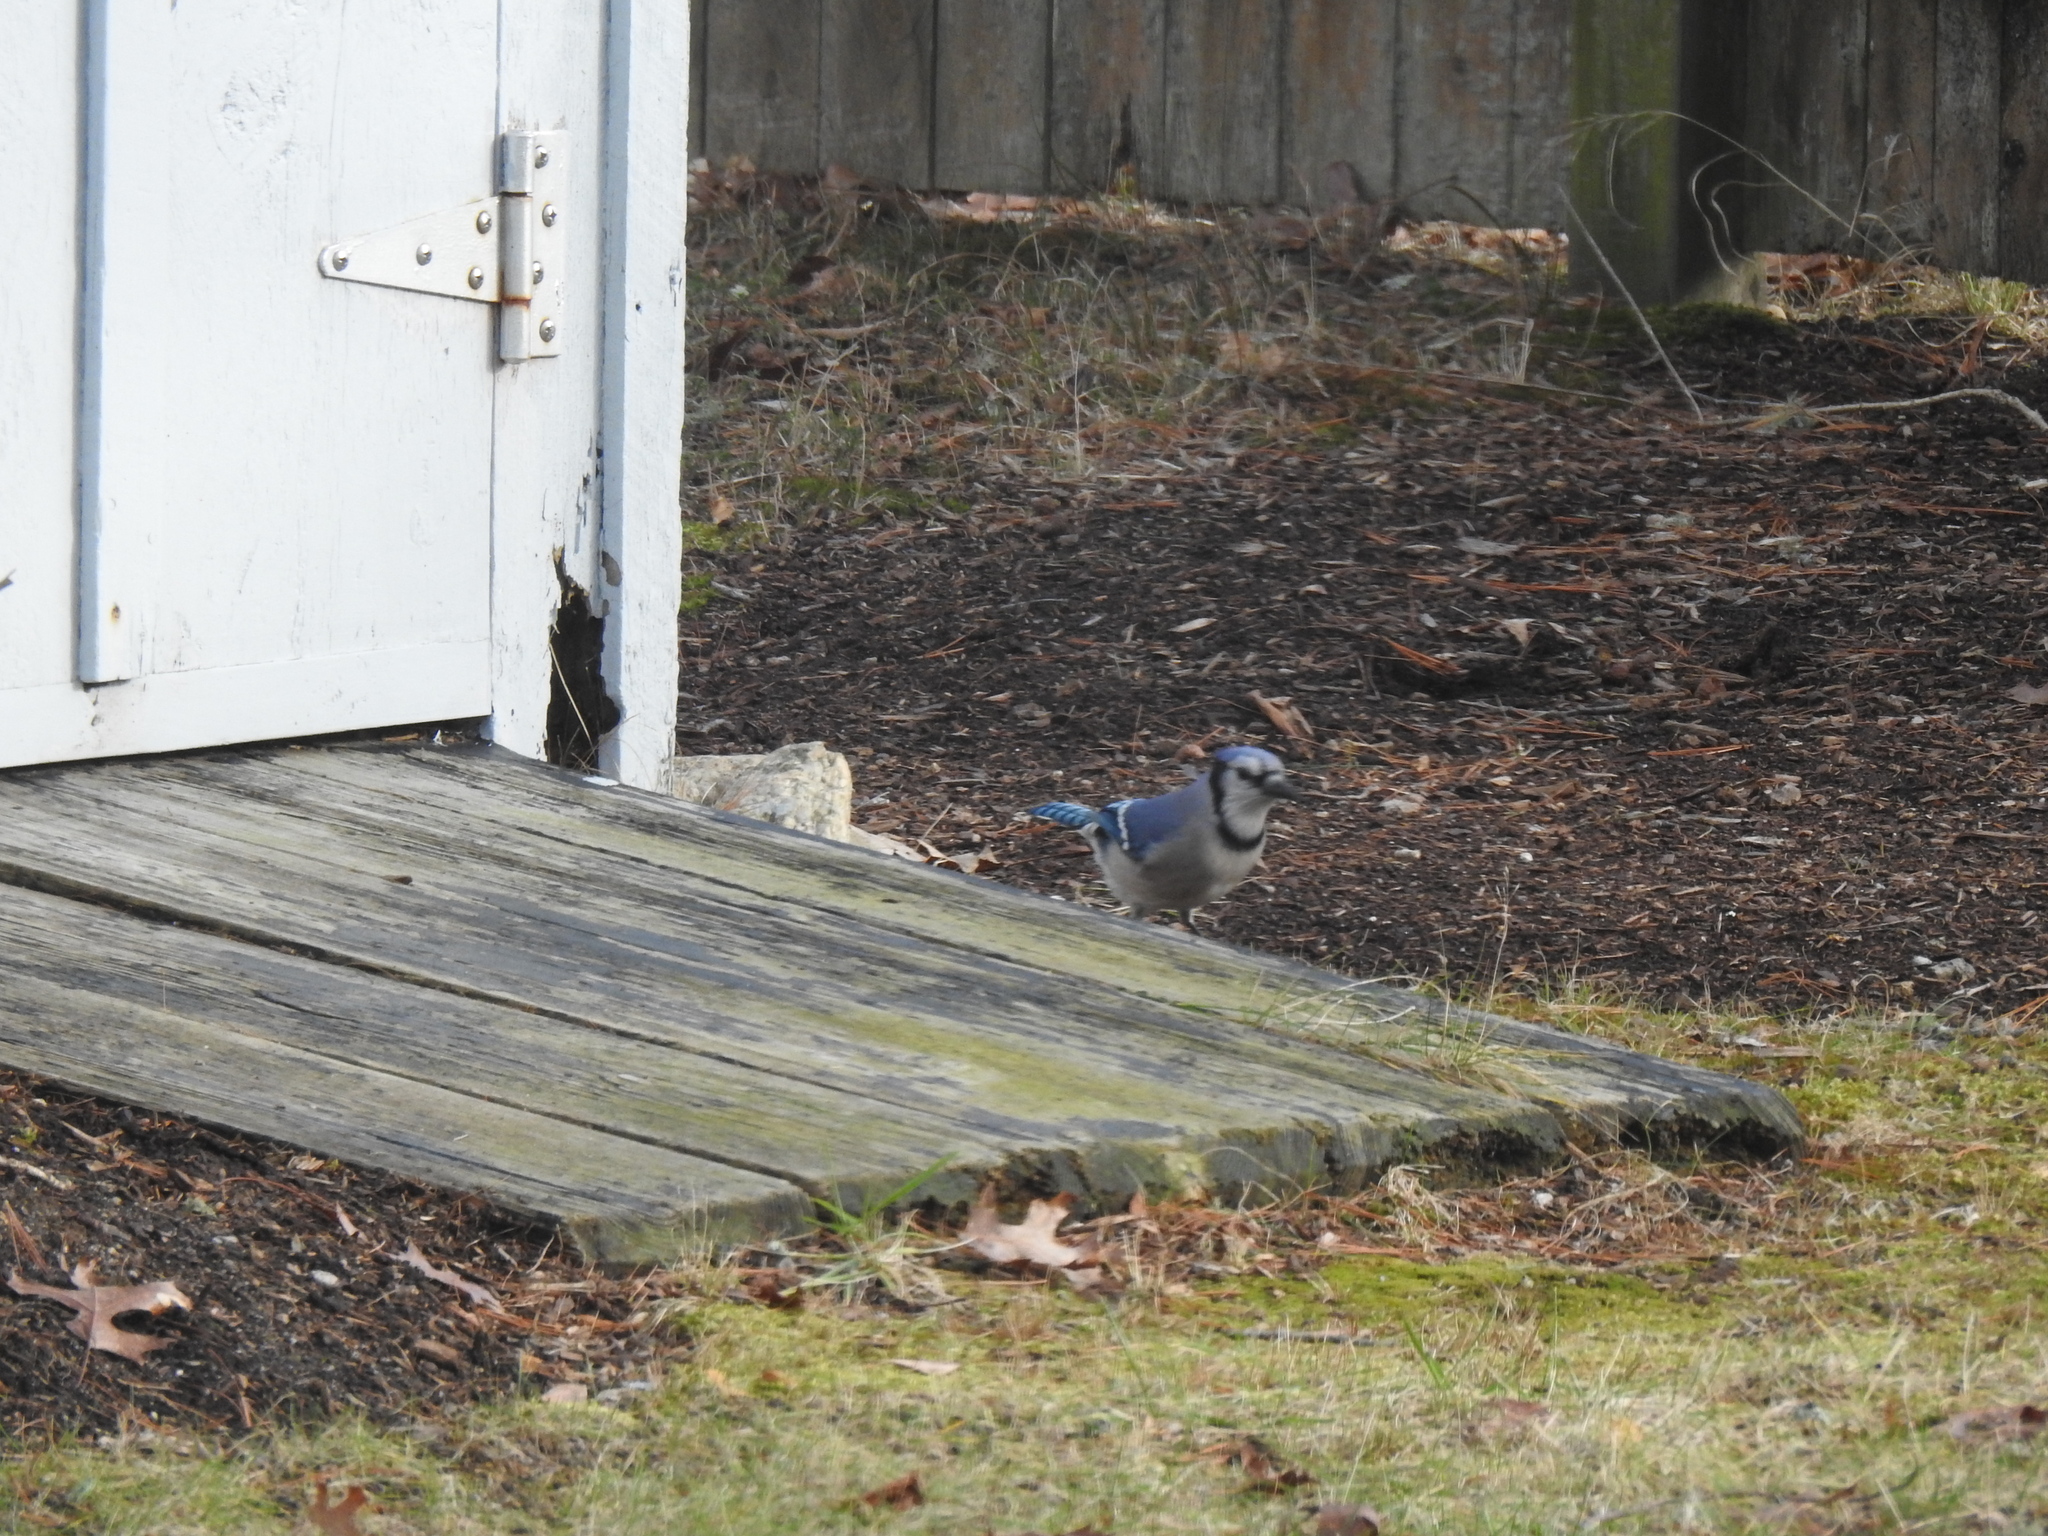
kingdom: Animalia
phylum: Chordata
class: Aves
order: Passeriformes
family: Corvidae
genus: Cyanocitta
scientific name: Cyanocitta cristata
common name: Blue jay
